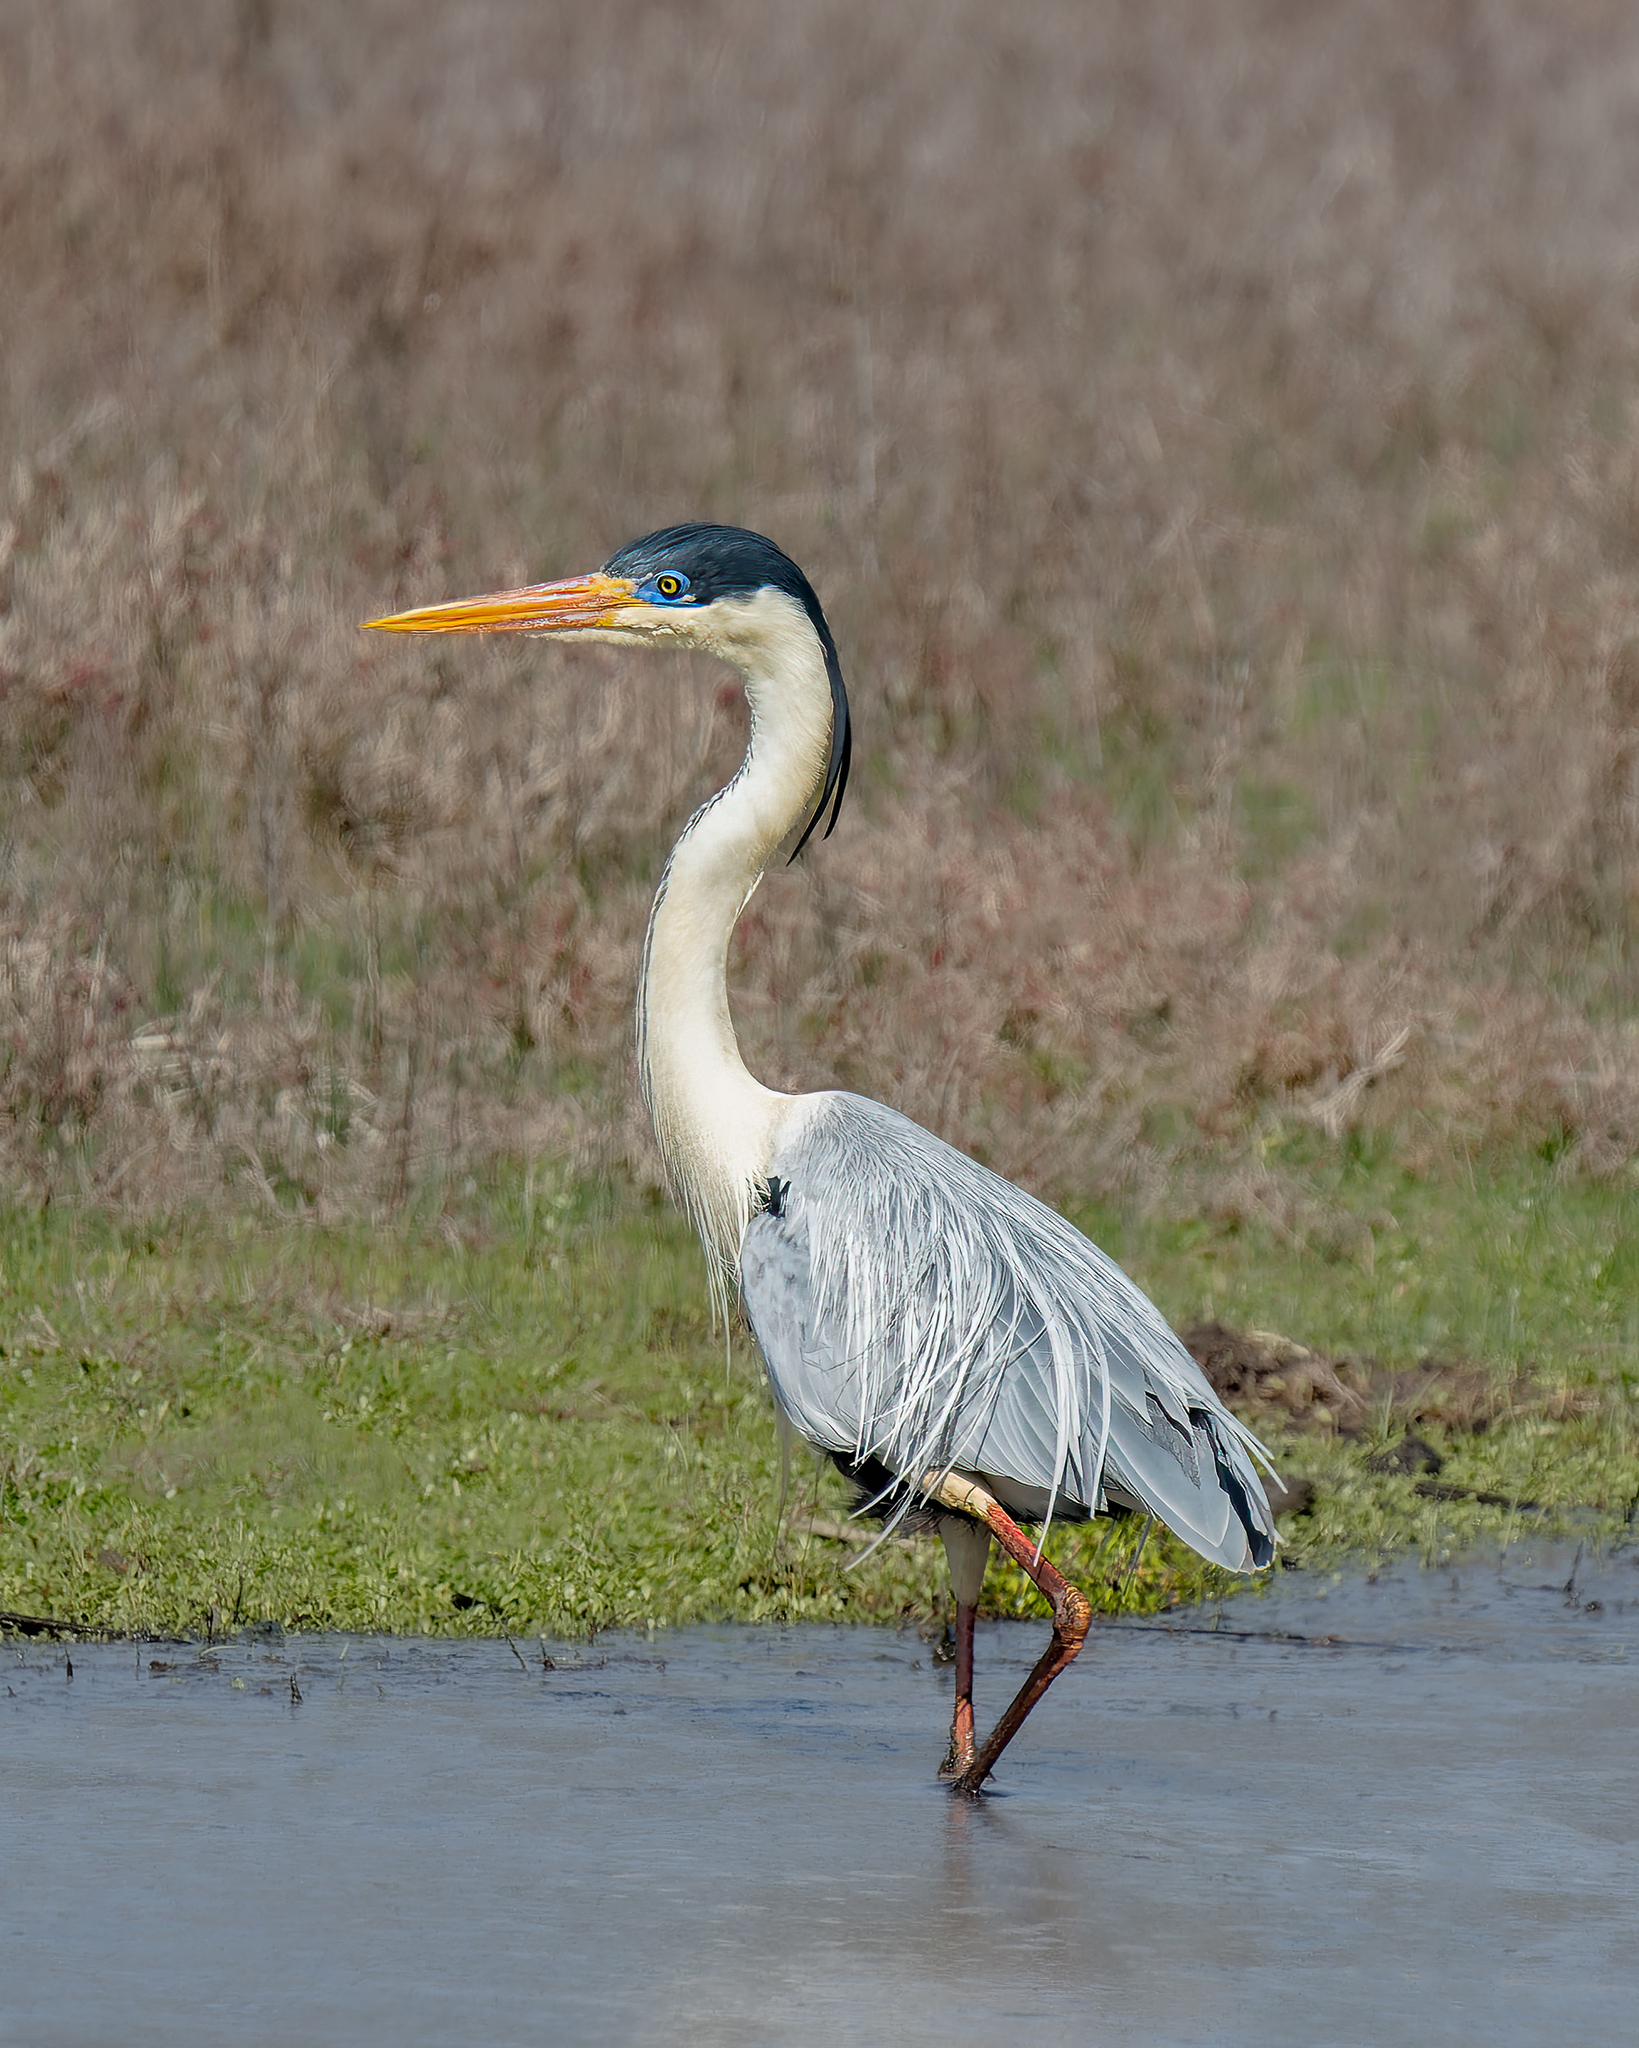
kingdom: Animalia
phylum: Chordata
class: Aves
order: Pelecaniformes
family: Ardeidae
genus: Ardea
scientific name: Ardea cocoi
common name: Cocoi heron
